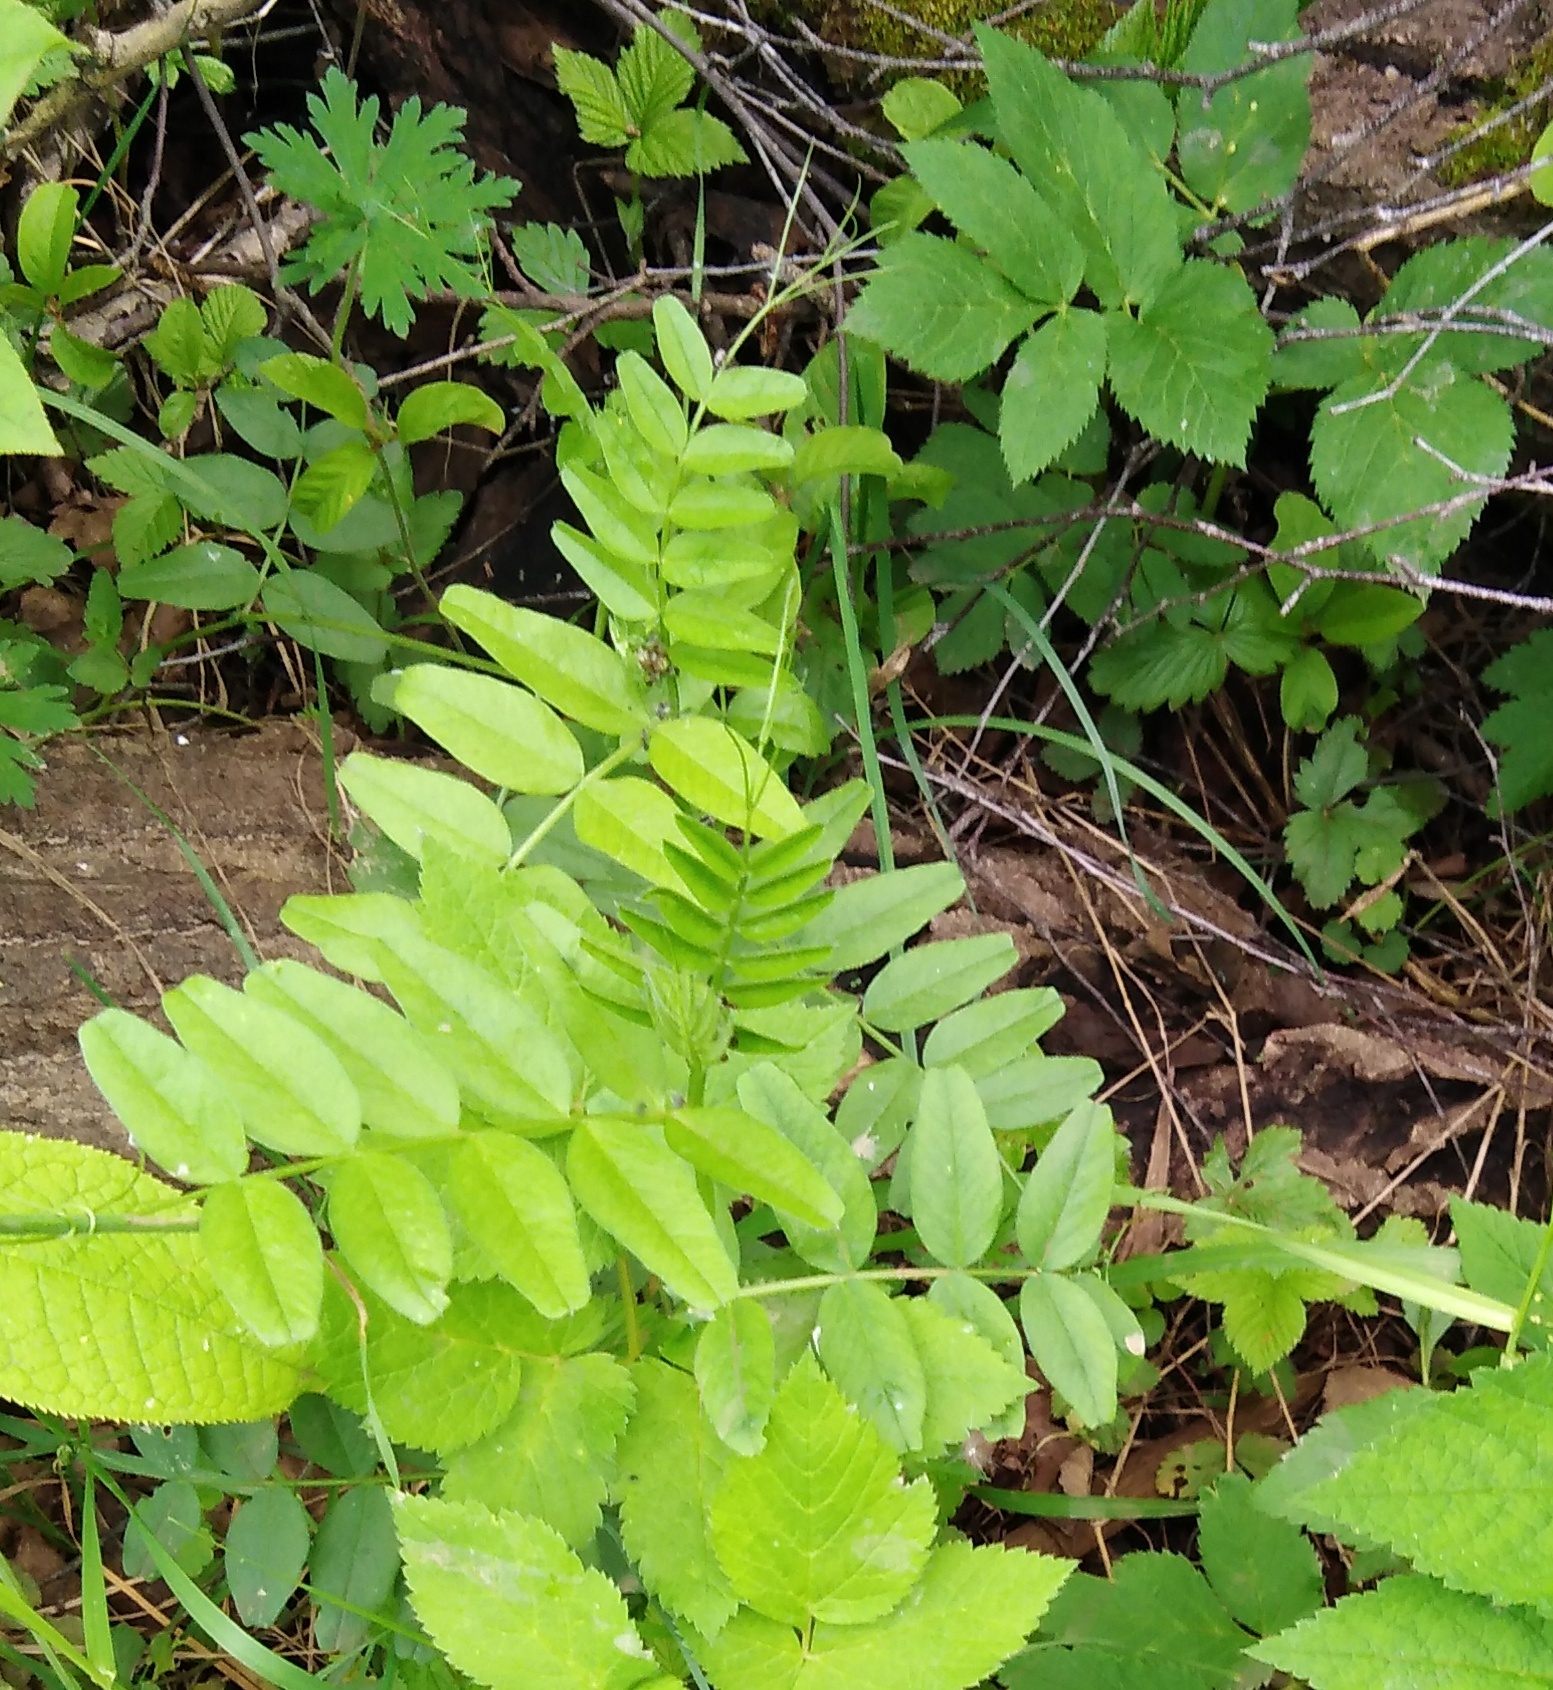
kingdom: Plantae
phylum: Tracheophyta
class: Magnoliopsida
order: Fabales
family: Fabaceae
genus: Vicia
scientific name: Vicia sepium
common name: Bush vetch
